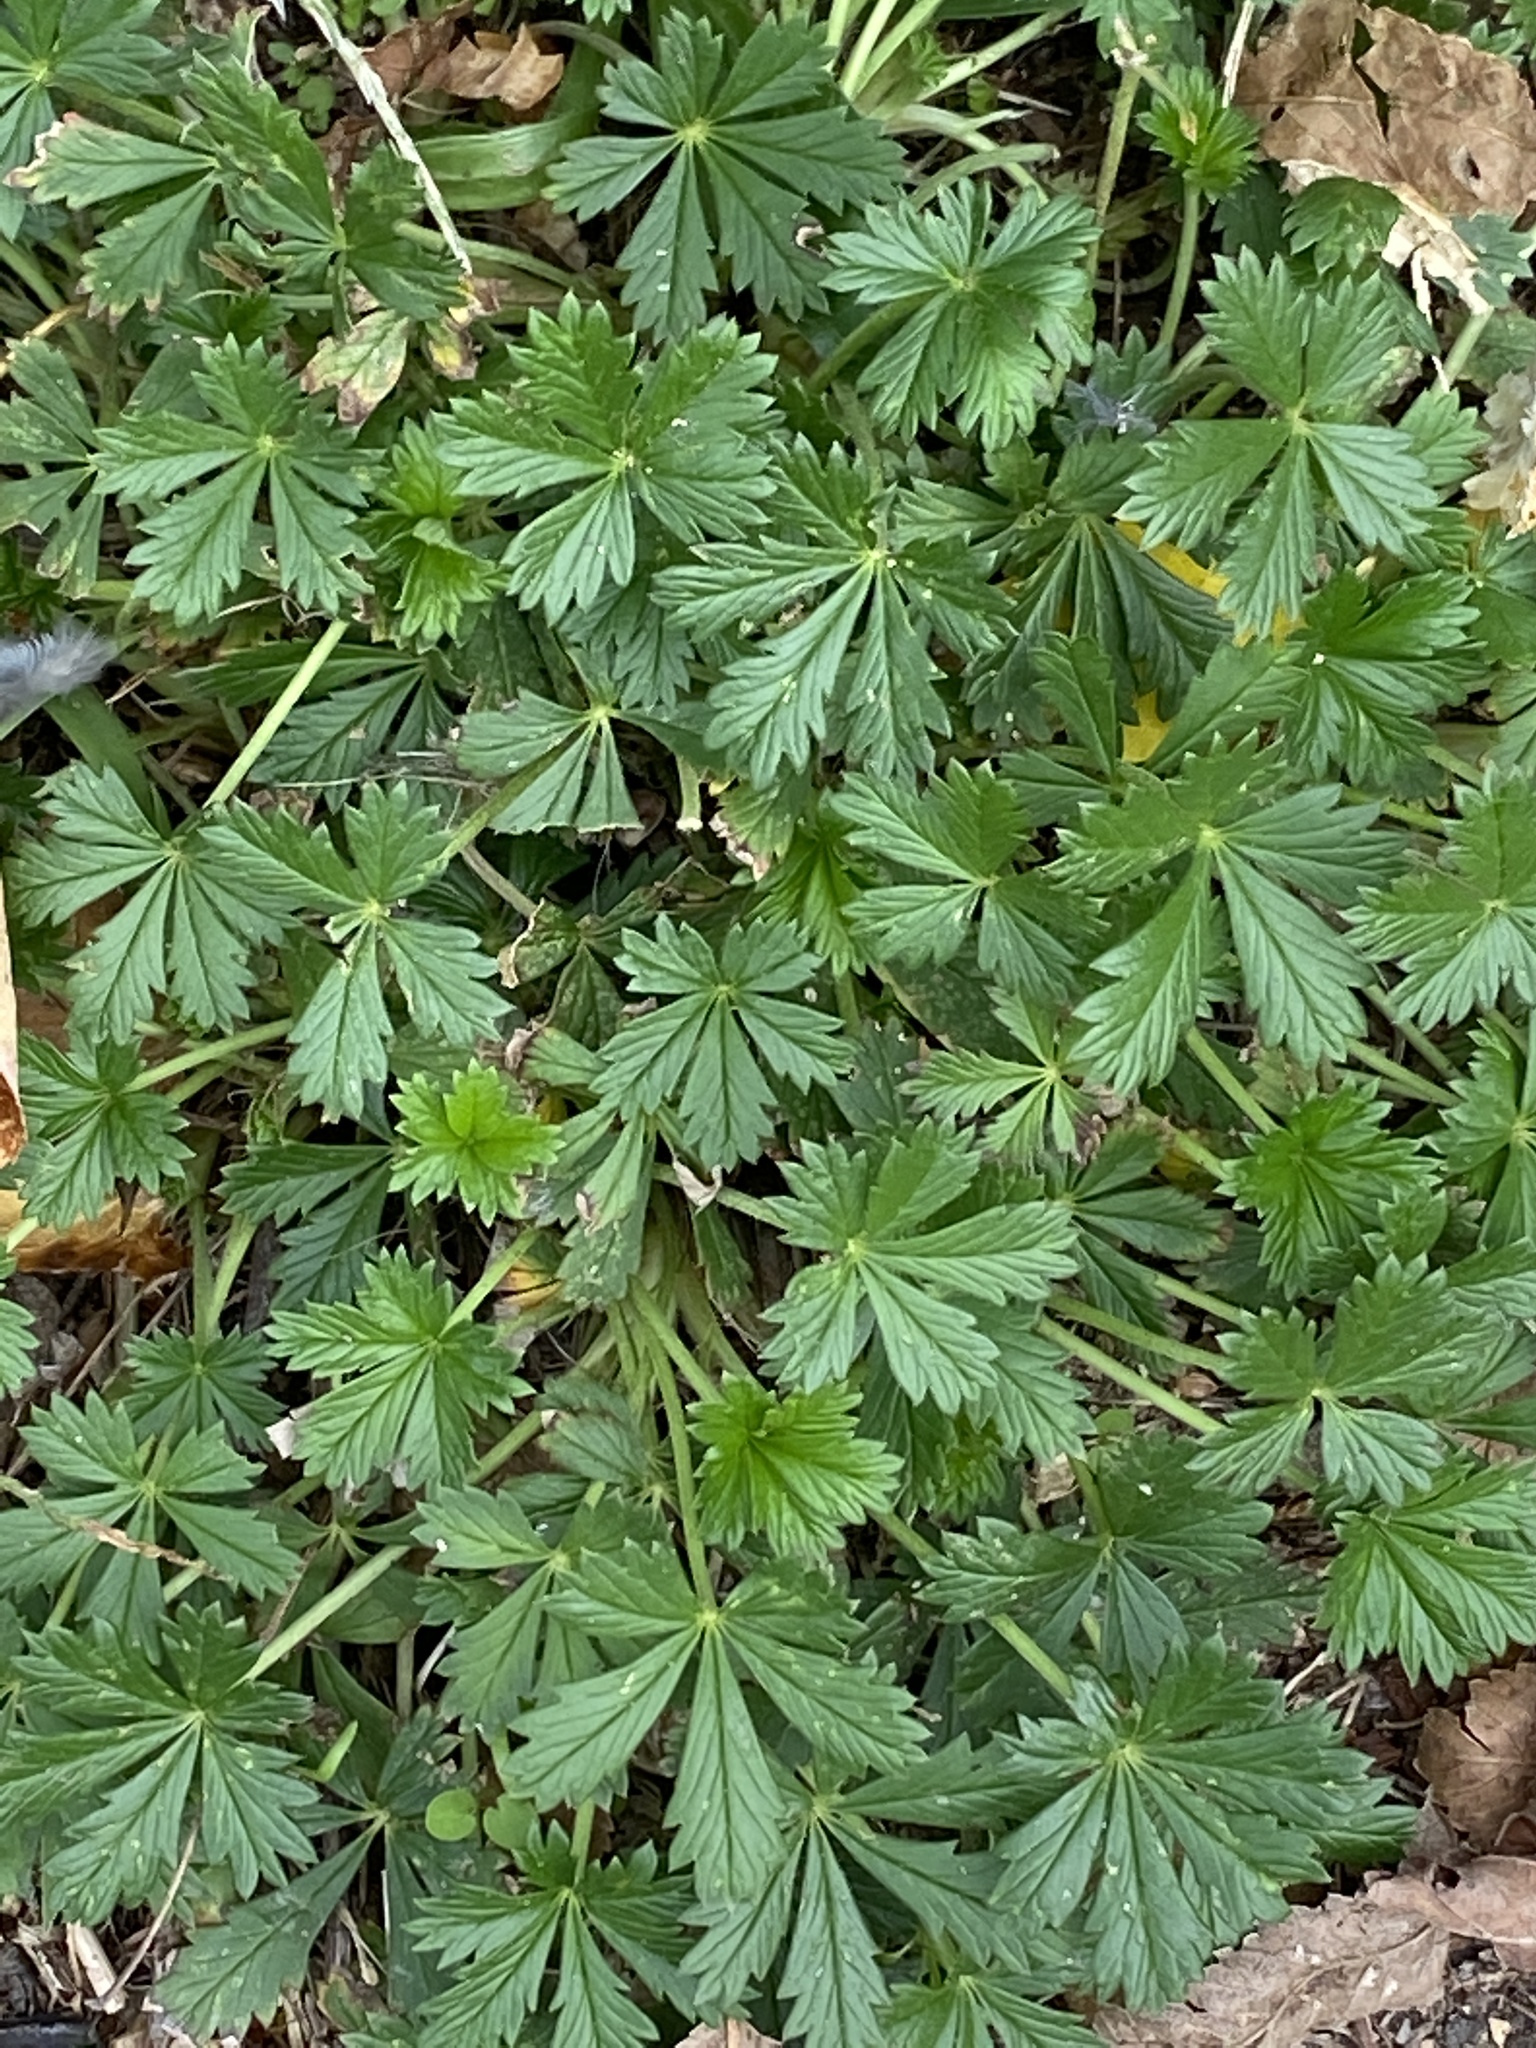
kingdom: Plantae
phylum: Tracheophyta
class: Magnoliopsida
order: Rosales
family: Rosaceae
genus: Potentilla
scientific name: Potentilla argentea
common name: Hoary cinquefoil
